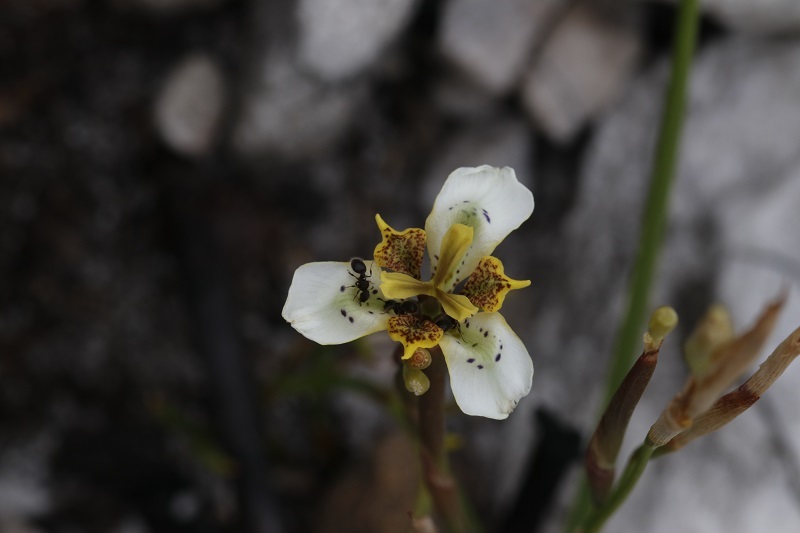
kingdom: Plantae
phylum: Tracheophyta
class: Liliopsida
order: Asparagales
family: Iridaceae
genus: Moraea
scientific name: Moraea deltoidea
